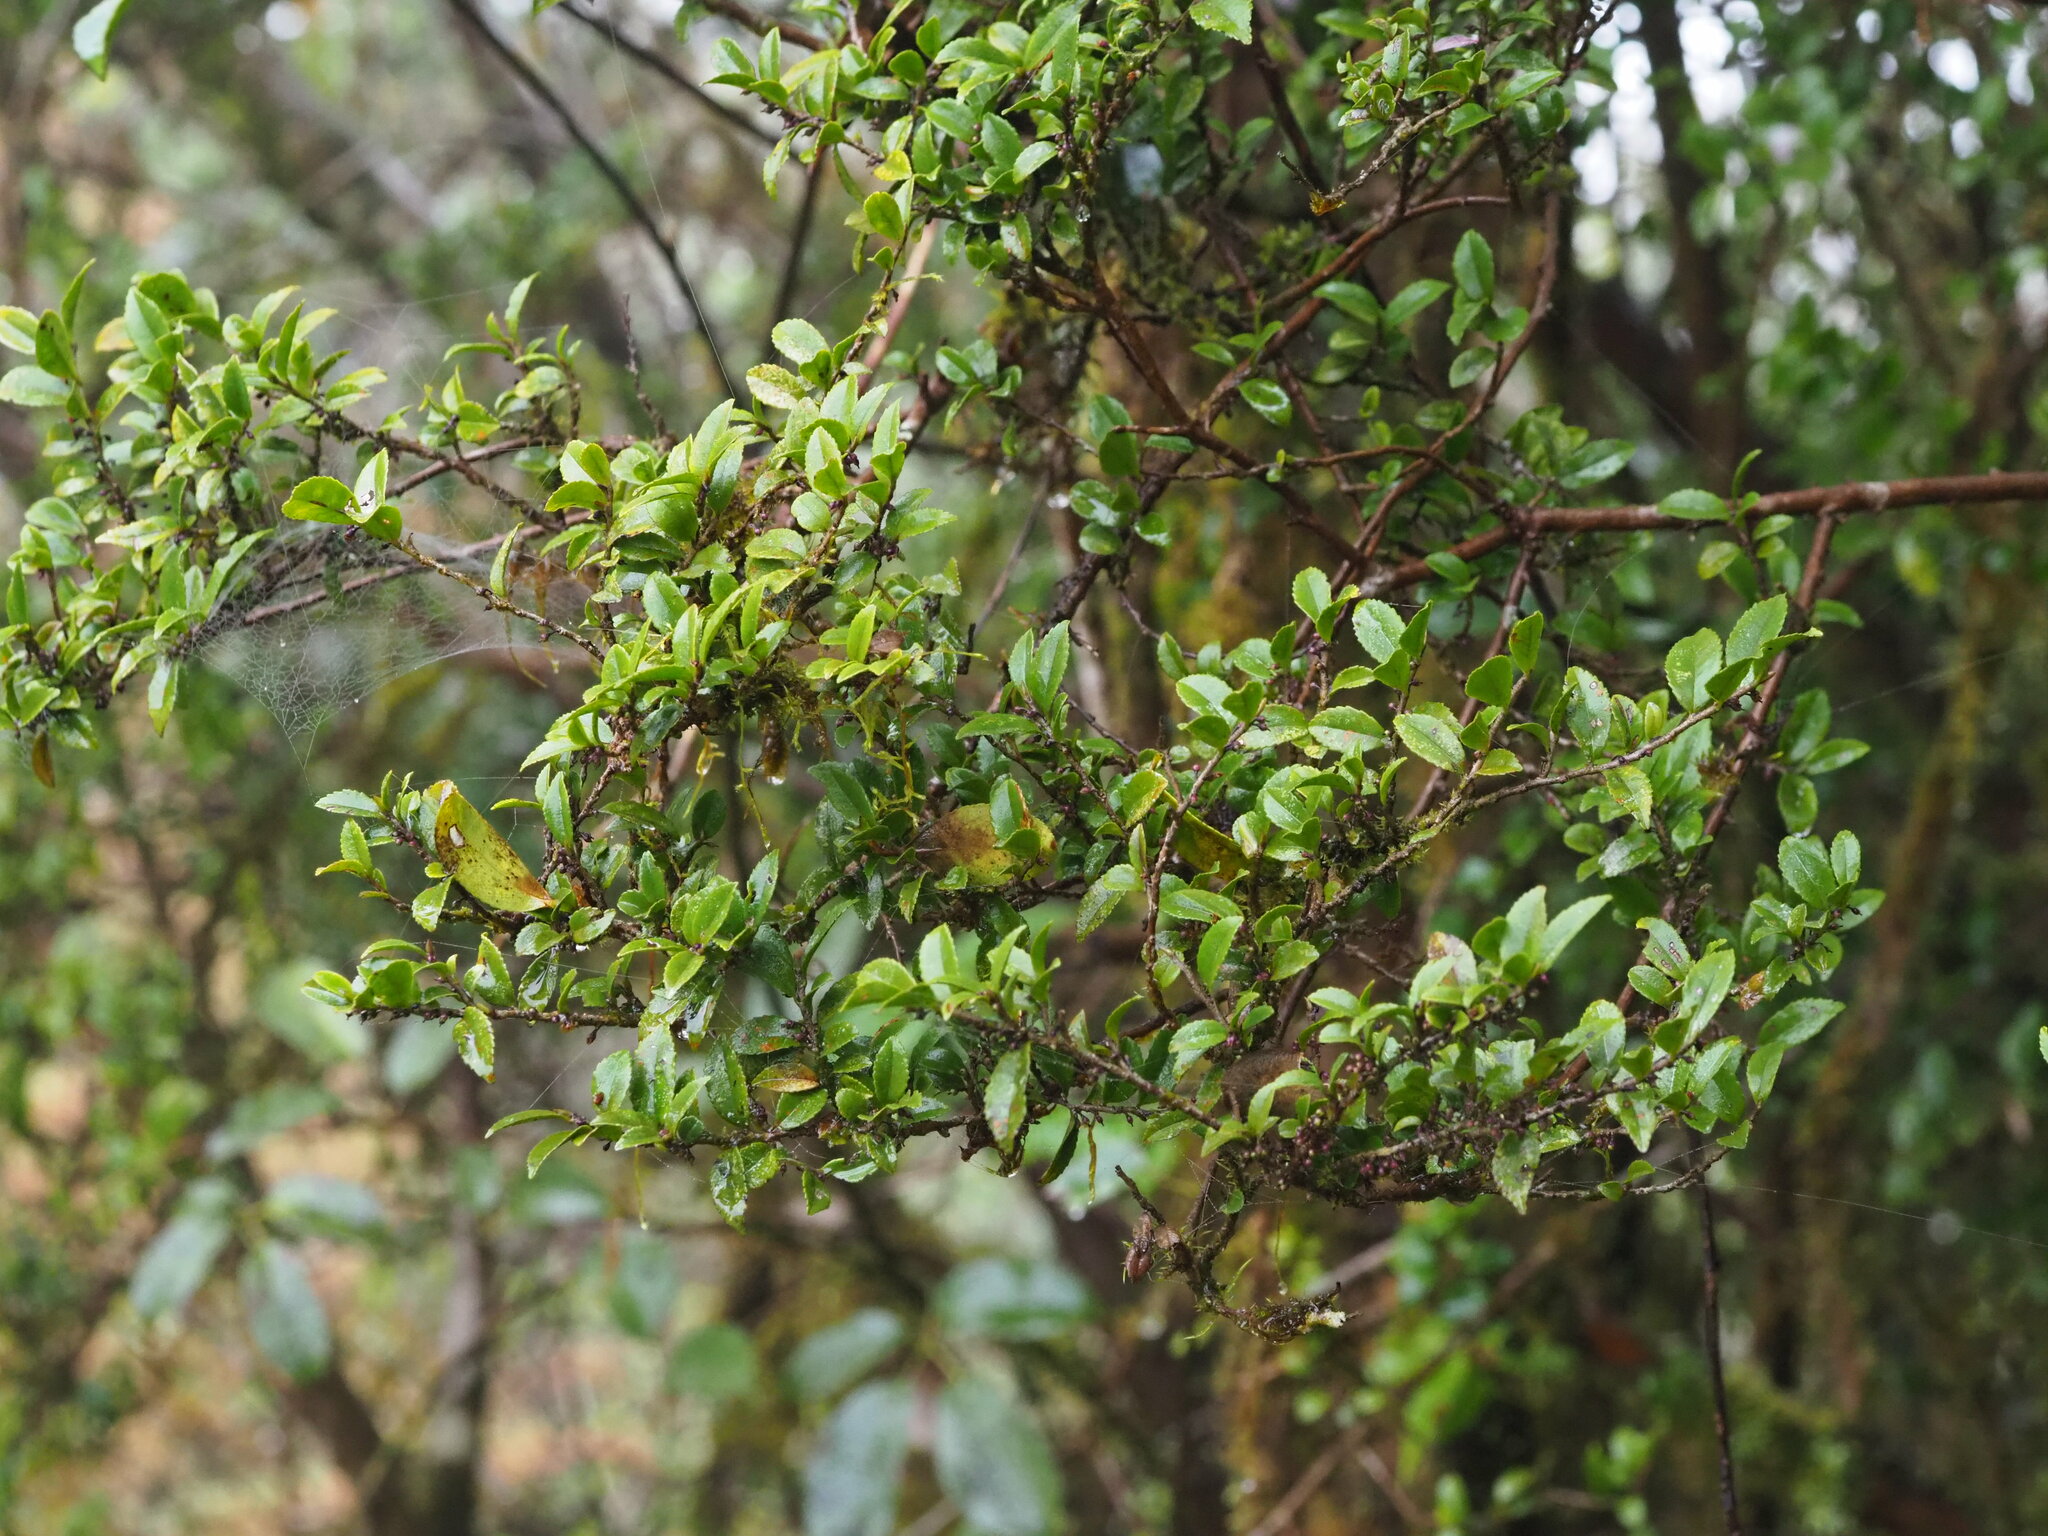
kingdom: Plantae
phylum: Tracheophyta
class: Magnoliopsida
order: Ericales
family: Pentaphylacaceae
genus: Eurya
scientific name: Eurya crenatifolia
